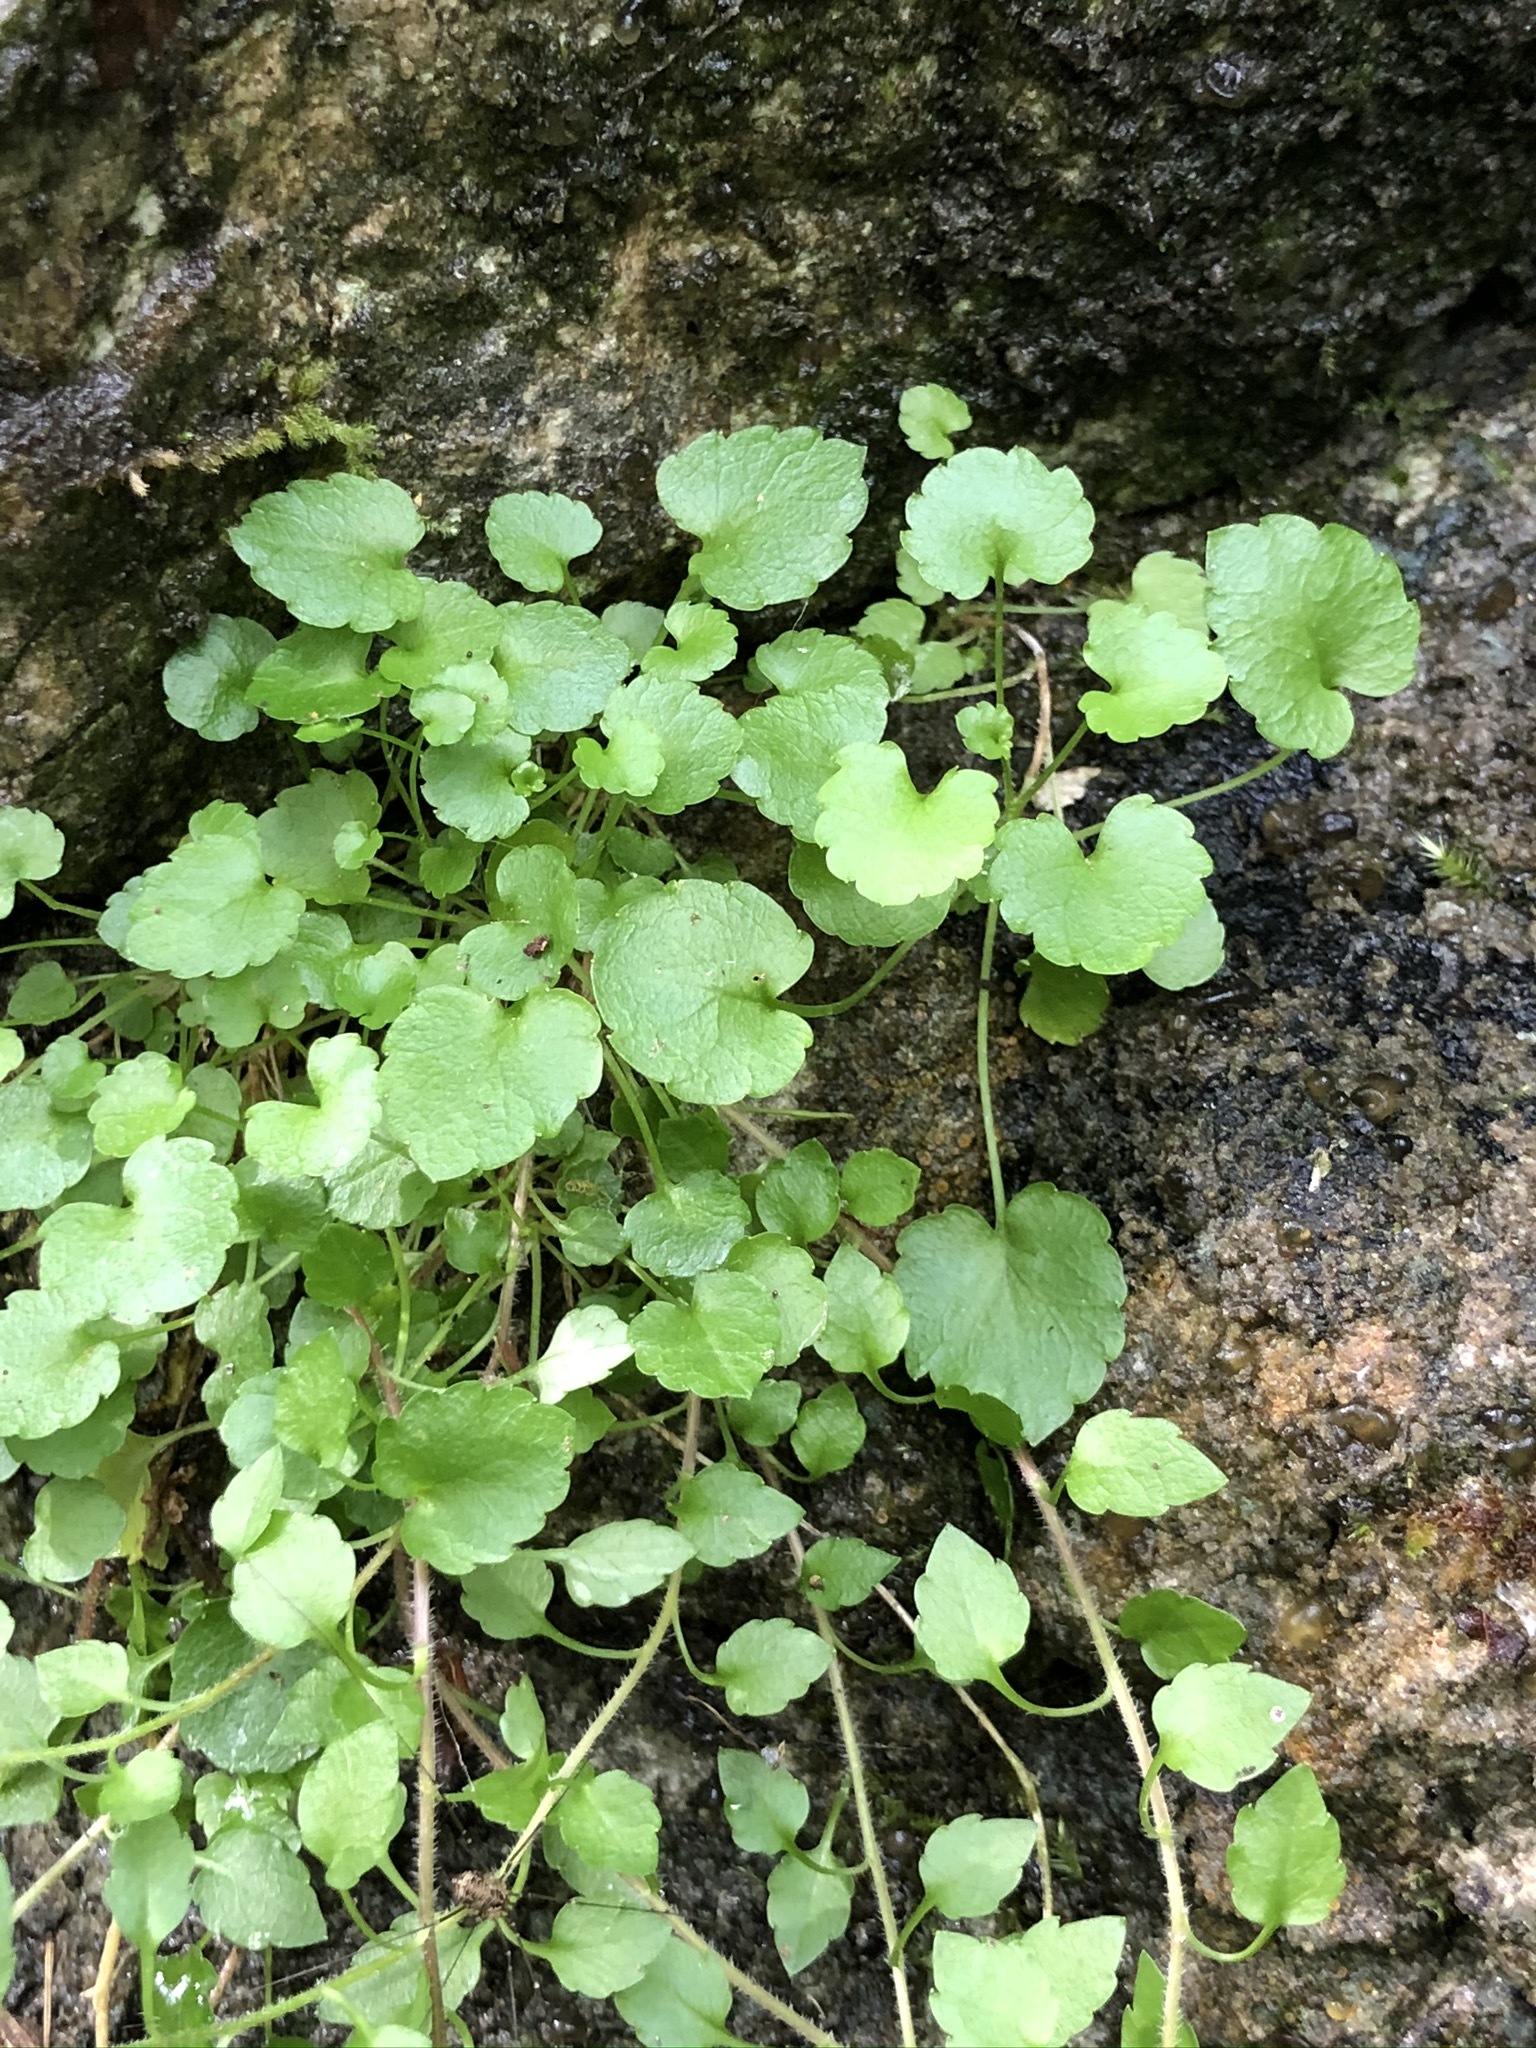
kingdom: Plantae
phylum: Tracheophyta
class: Magnoliopsida
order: Asterales
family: Campanulaceae
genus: Campanula
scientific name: Campanula cochleariifolia
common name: Fairies'-thimbles
